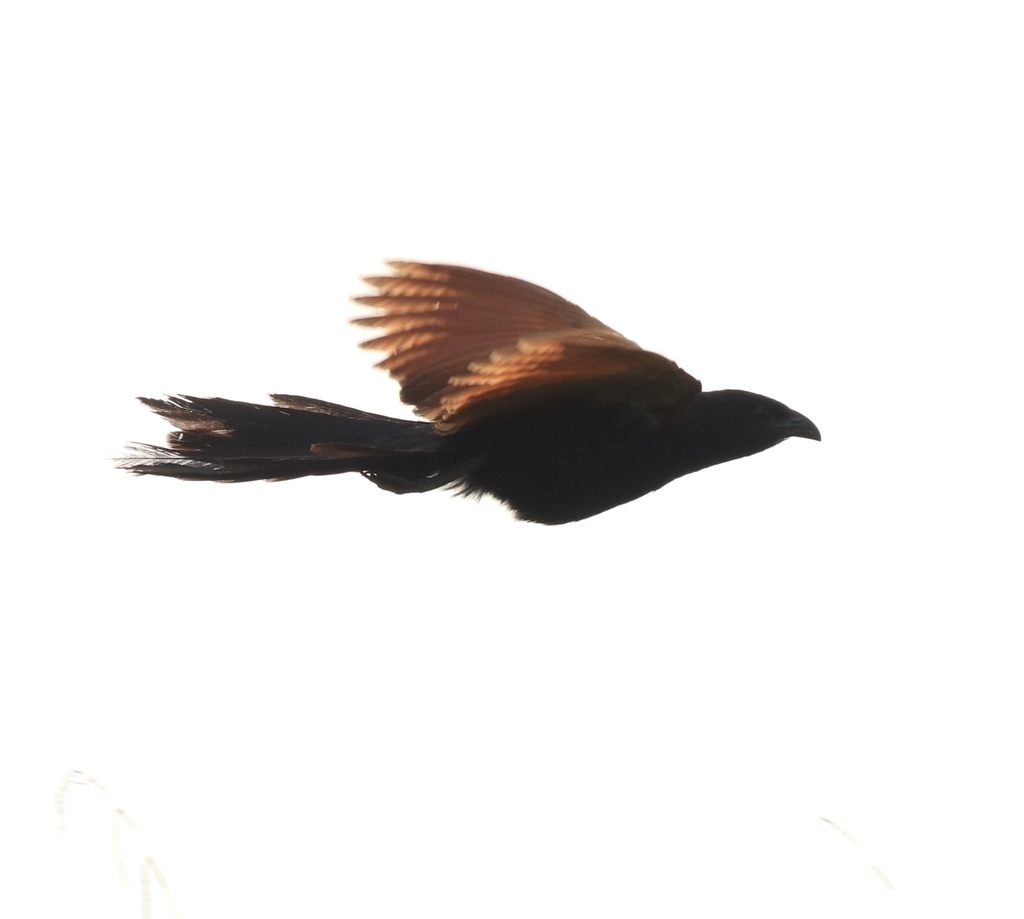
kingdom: Animalia
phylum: Chordata
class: Aves
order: Cuculiformes
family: Cuculidae
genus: Centropus
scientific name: Centropus bengalensis
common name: Lesser coucal
